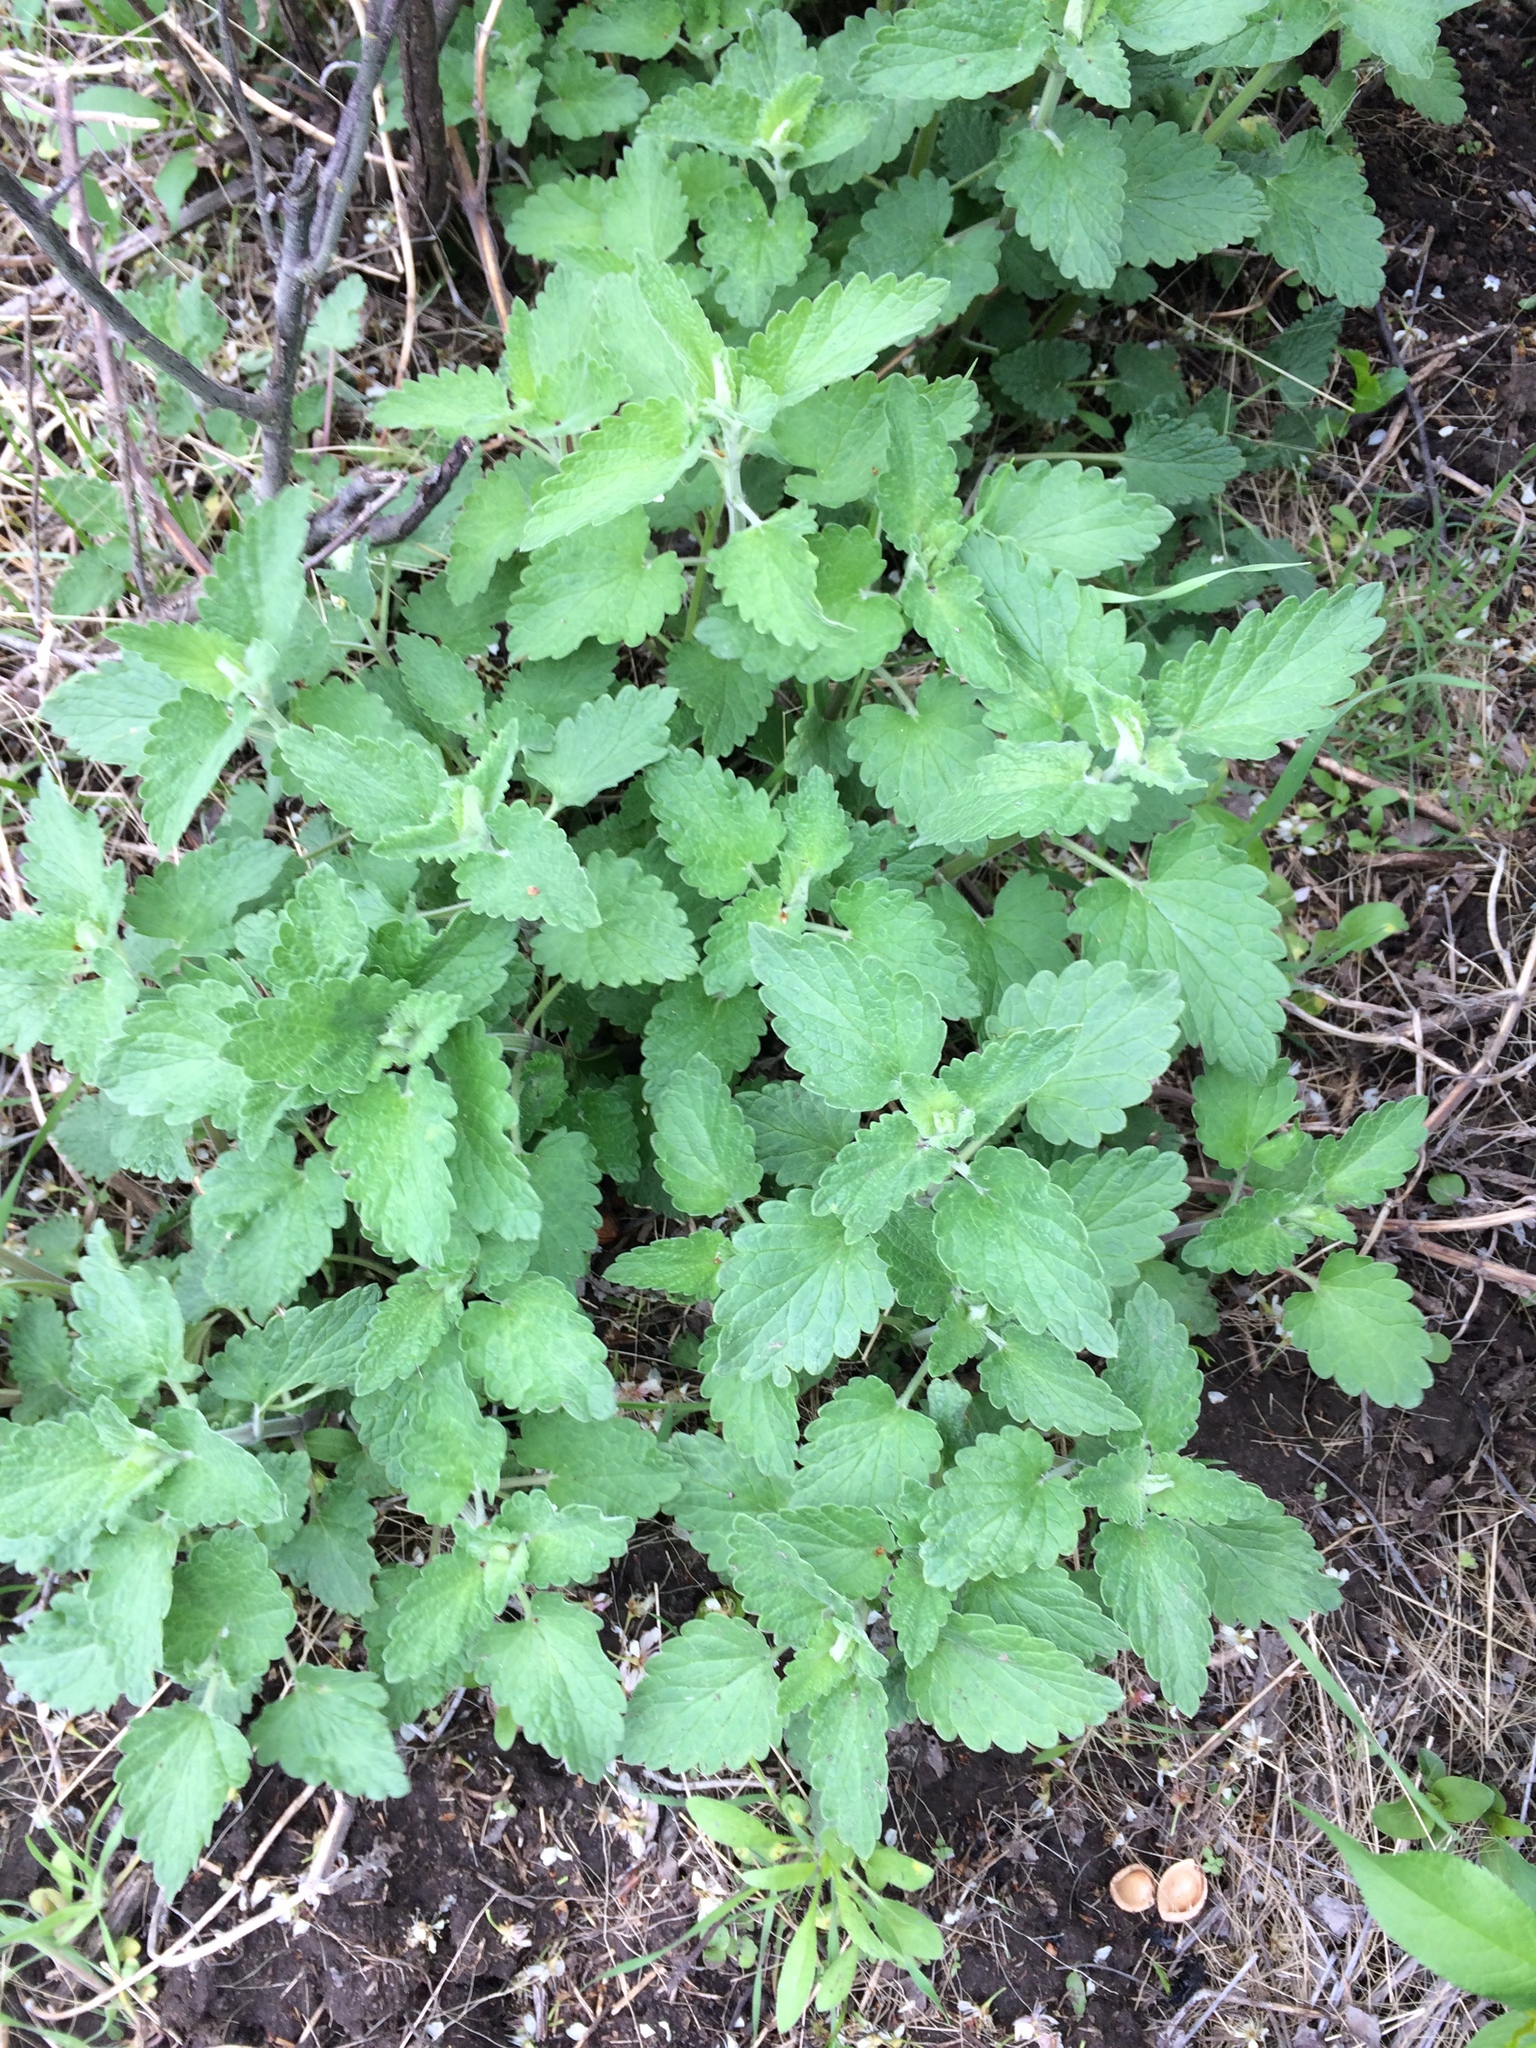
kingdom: Plantae
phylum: Tracheophyta
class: Magnoliopsida
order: Lamiales
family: Lamiaceae
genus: Nepeta
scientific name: Nepeta cataria
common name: Catnip
